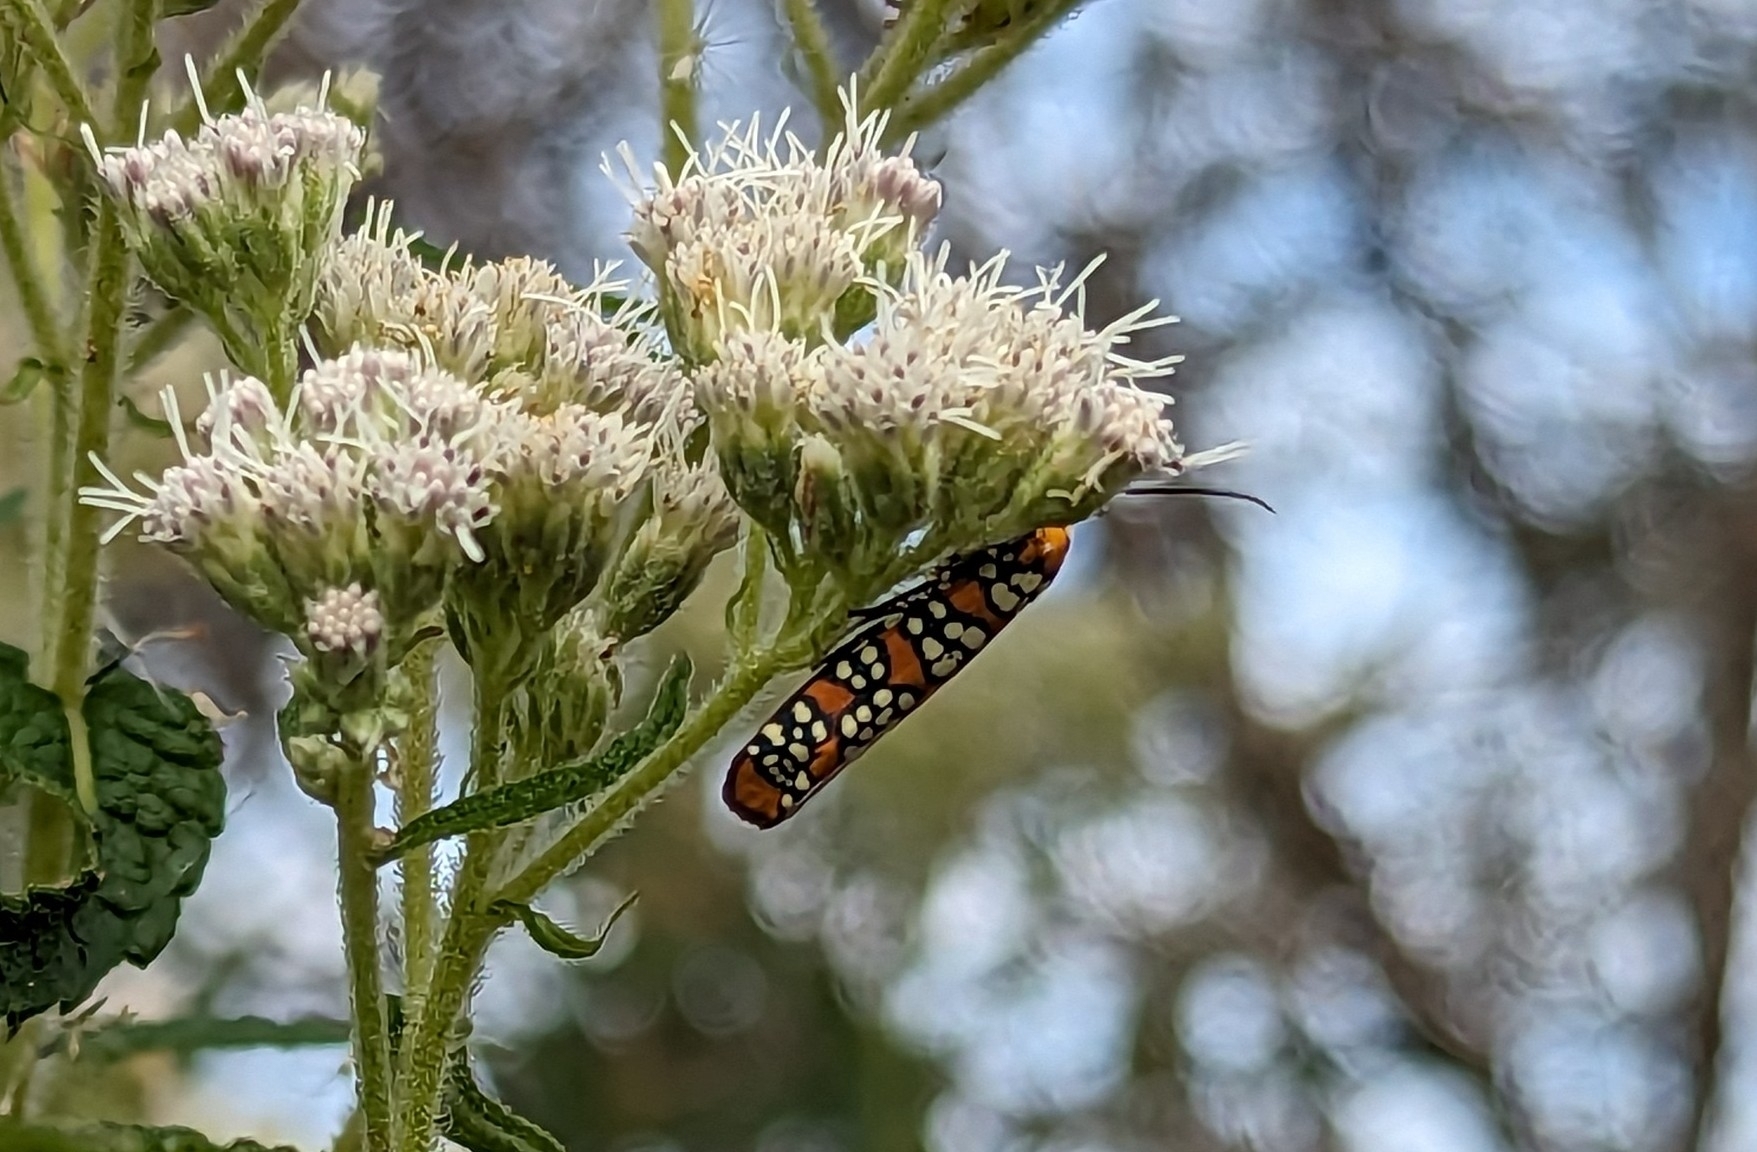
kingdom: Animalia
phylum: Arthropoda
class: Insecta
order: Lepidoptera
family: Attevidae
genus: Atteva
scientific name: Atteva punctella
